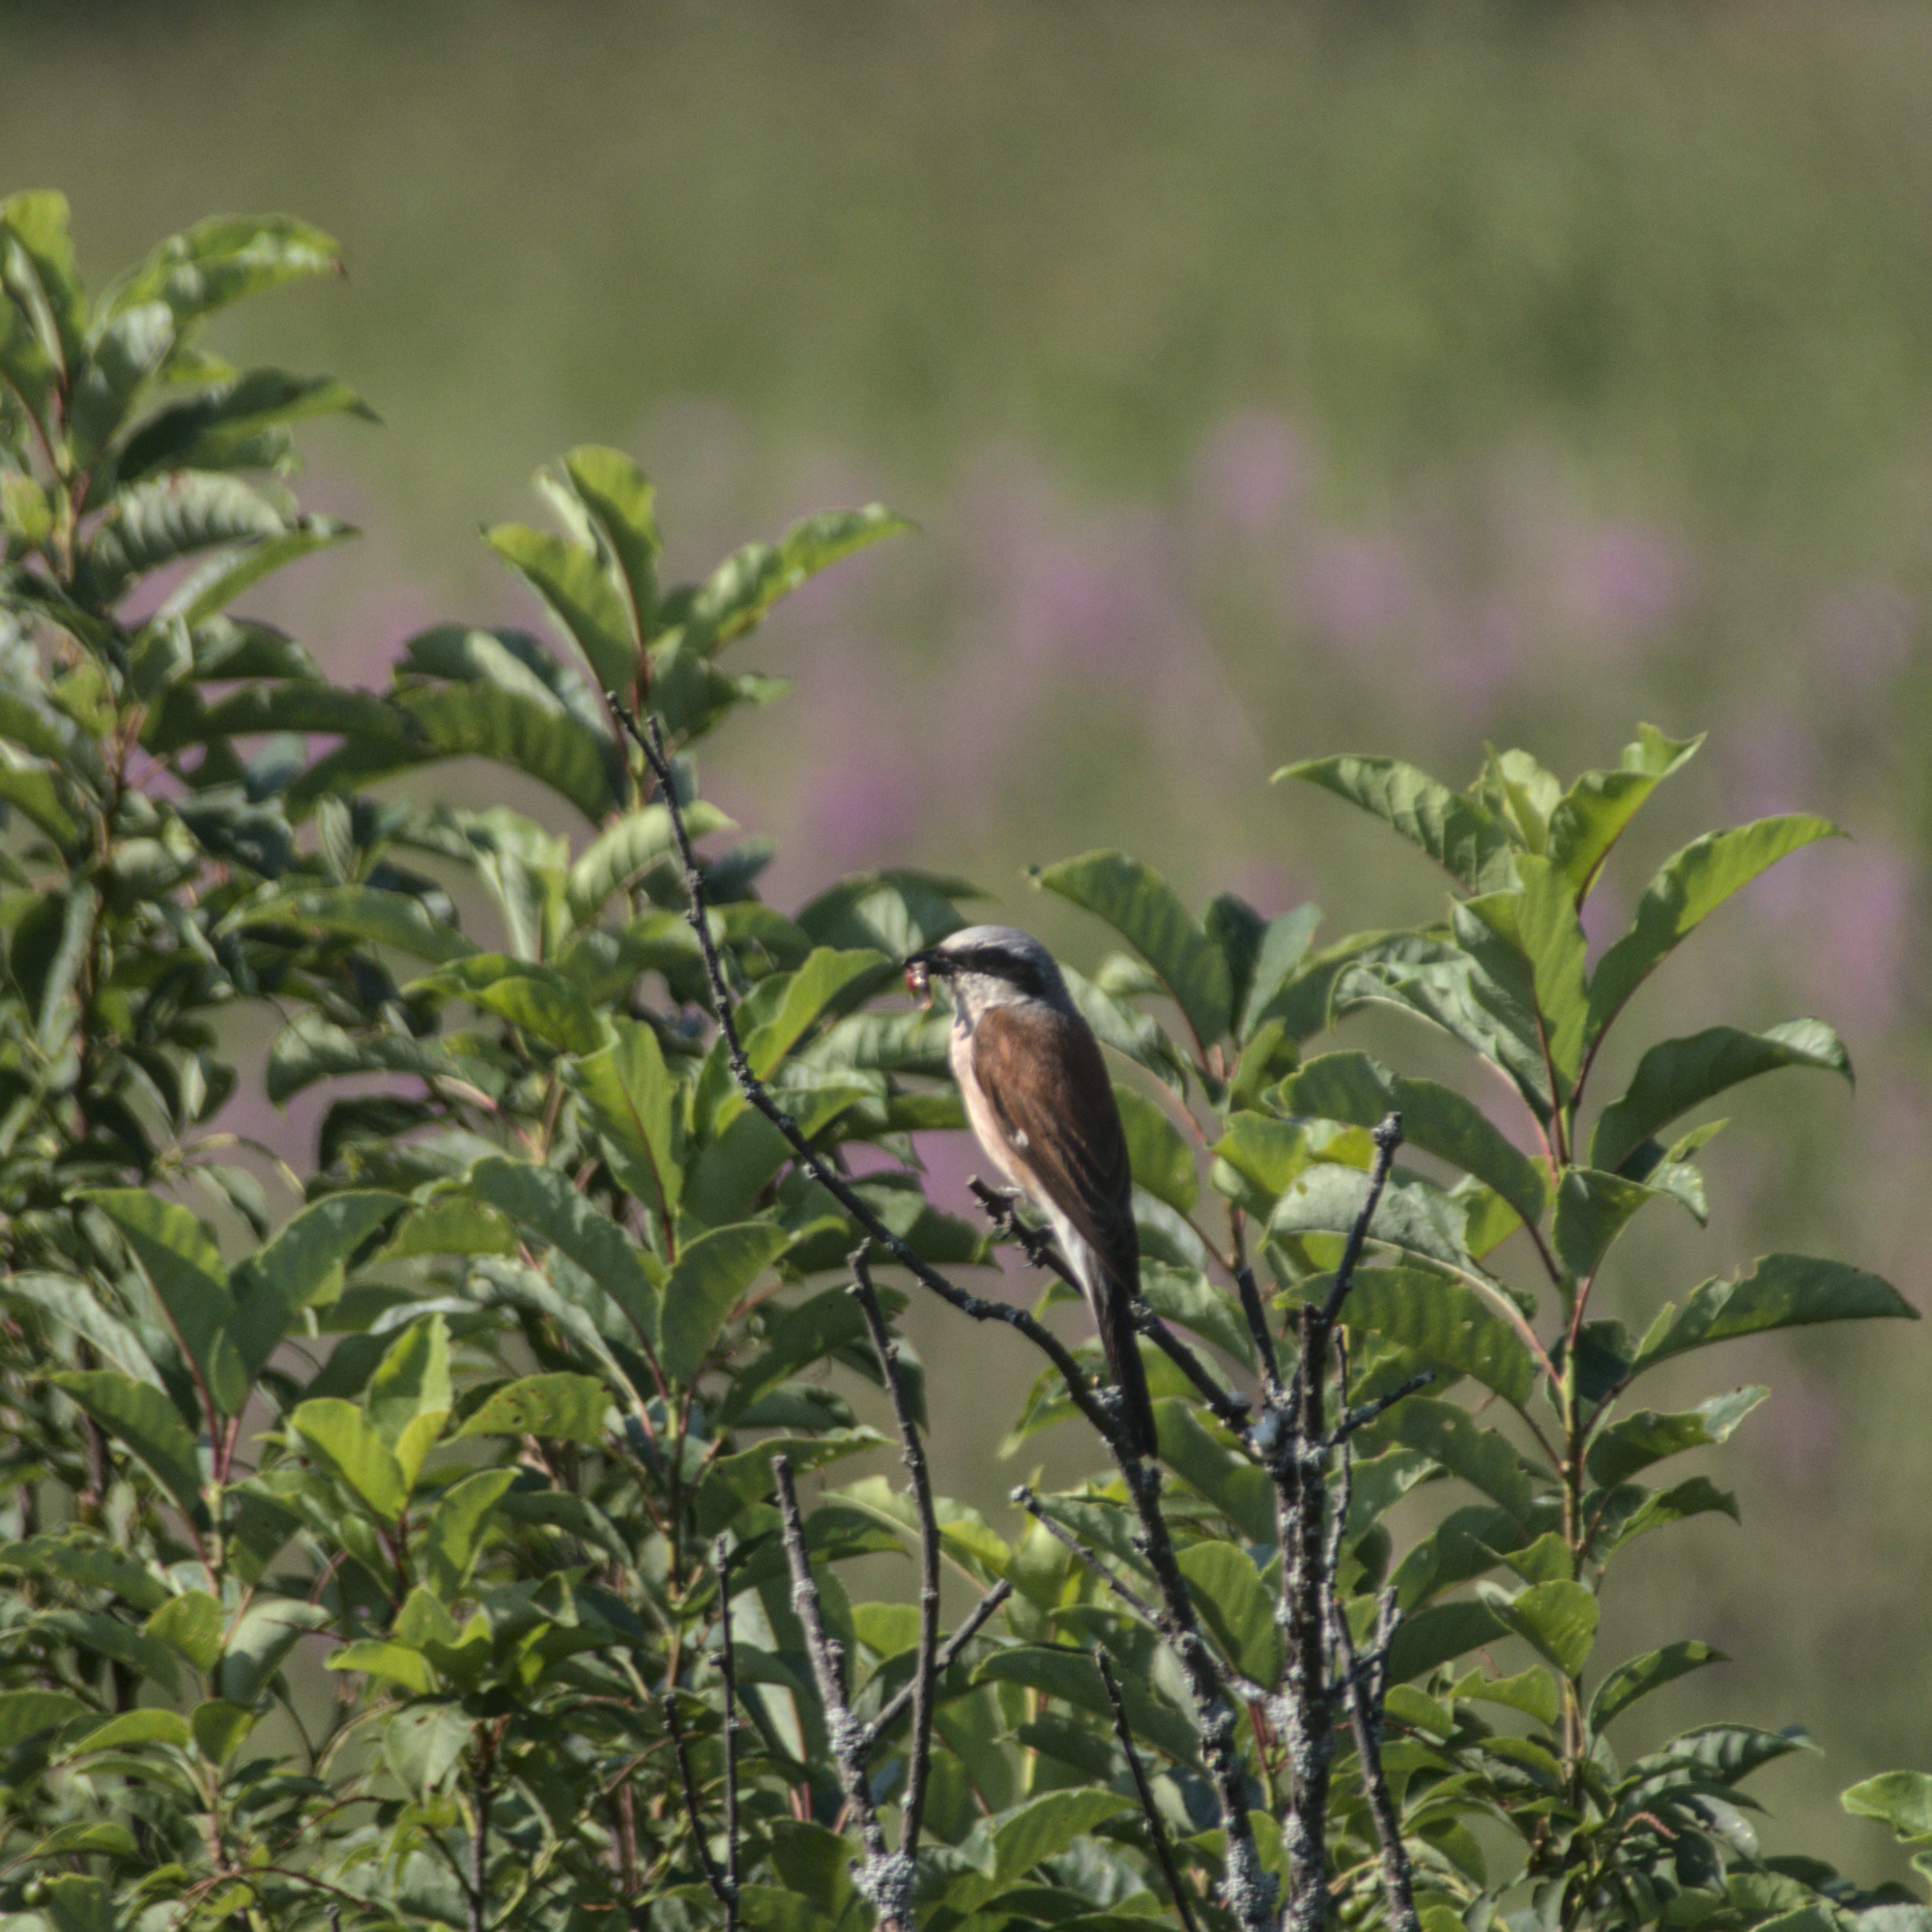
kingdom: Animalia
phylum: Chordata
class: Aves
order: Passeriformes
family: Laniidae
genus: Lanius
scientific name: Lanius collurio
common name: Red-backed shrike
